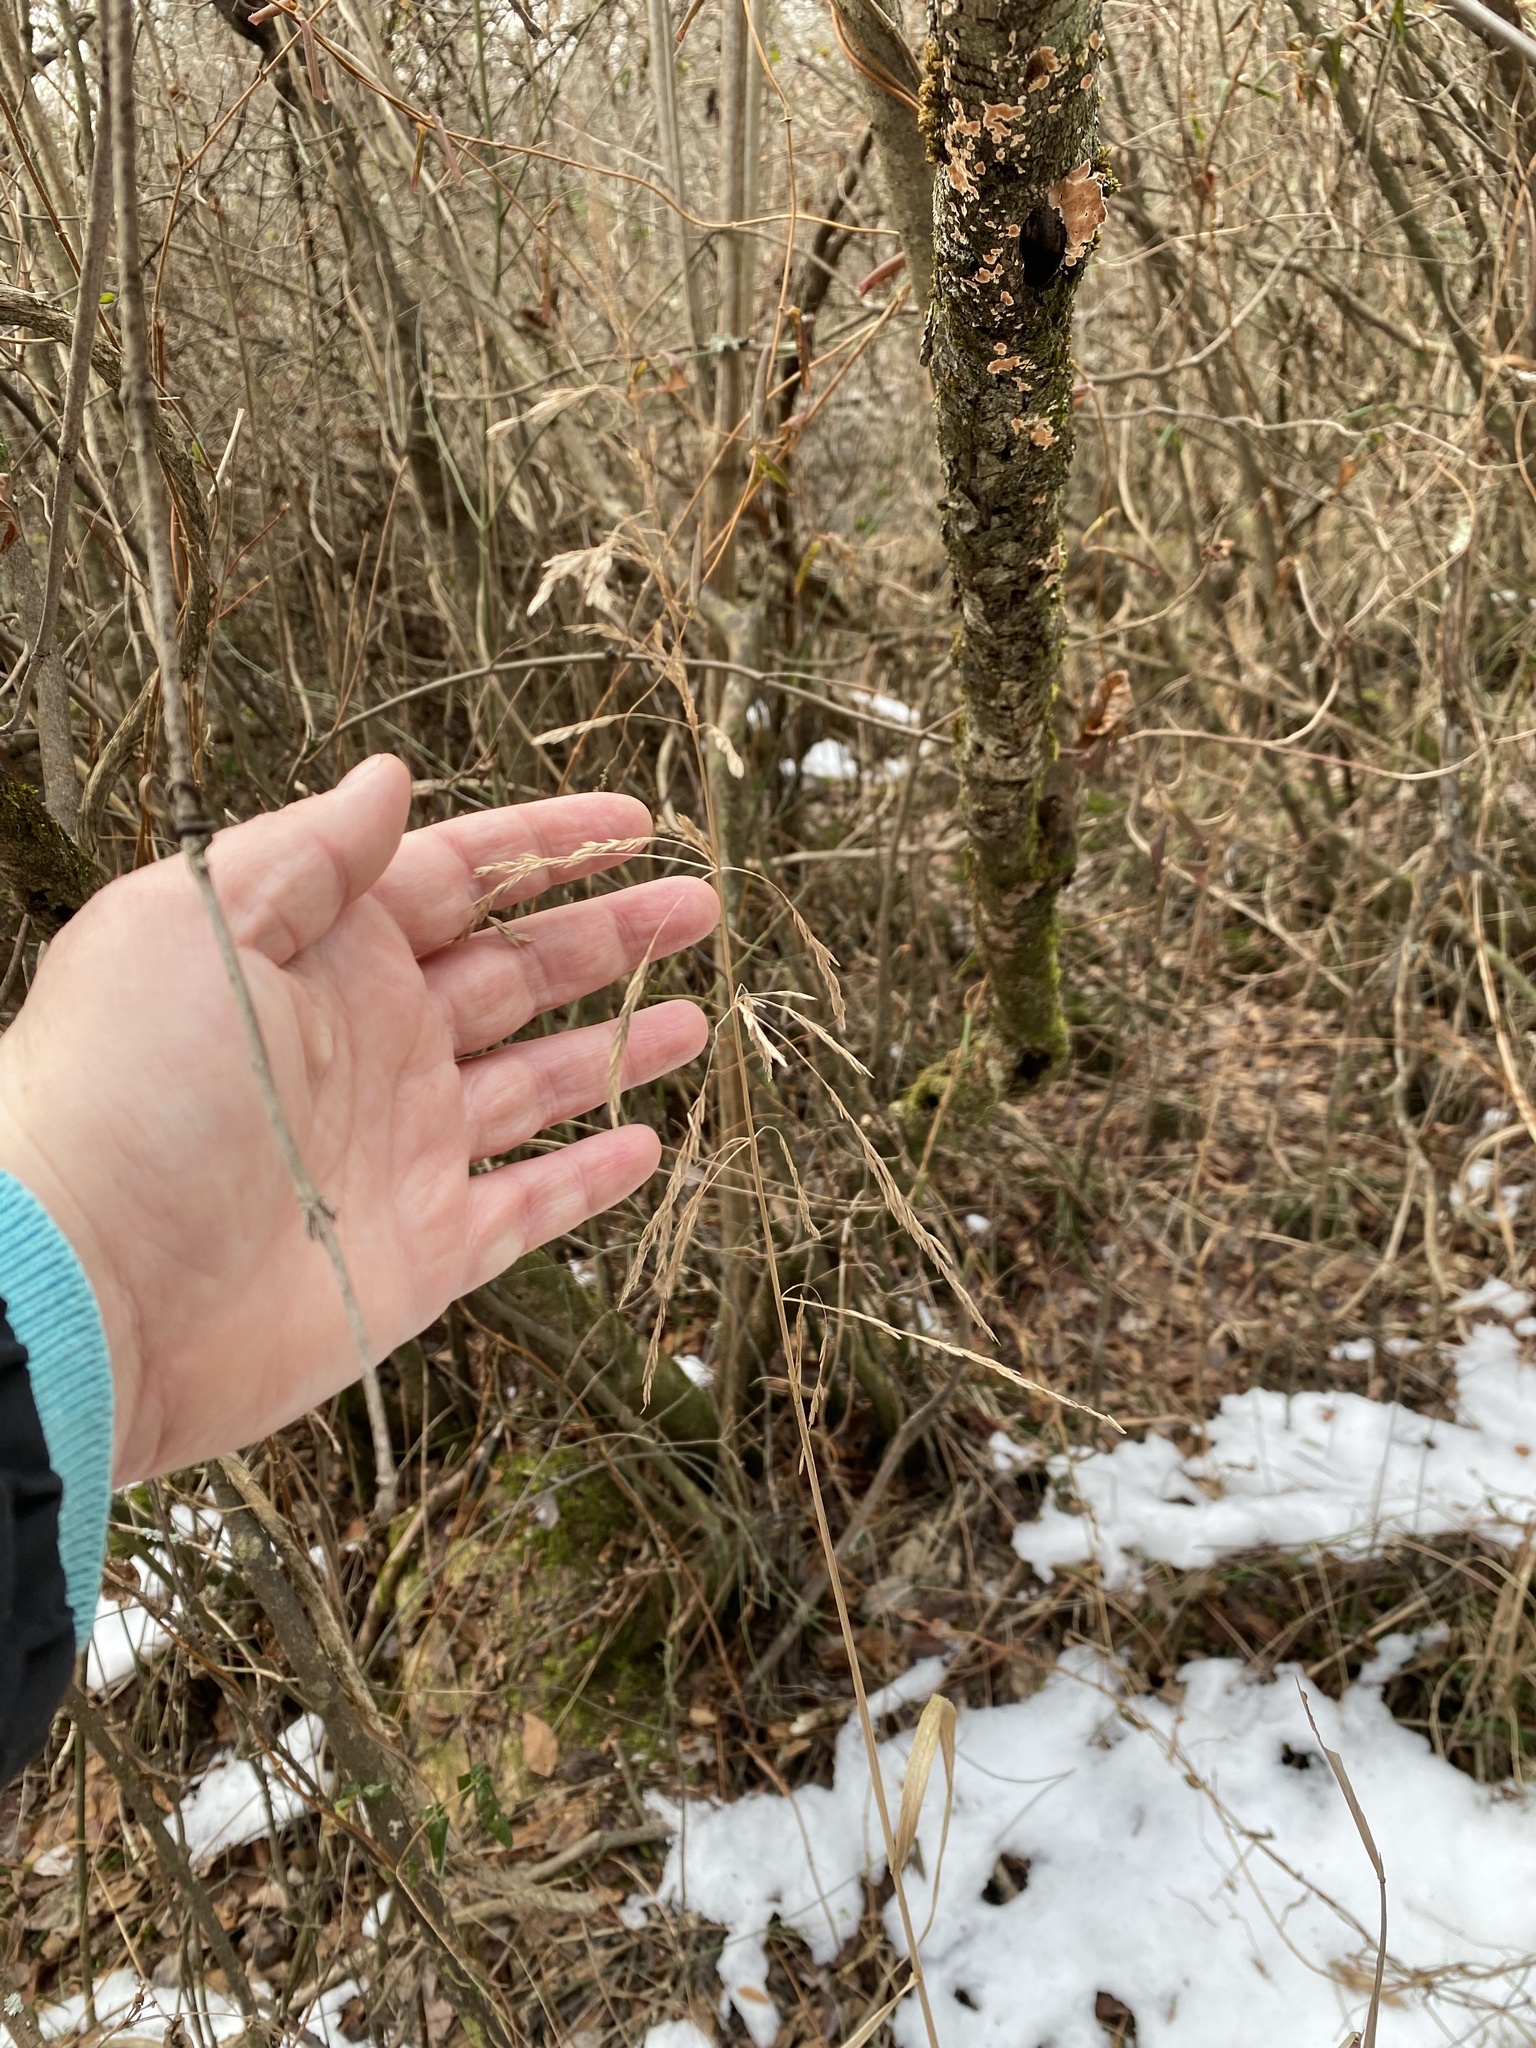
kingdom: Plantae
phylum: Tracheophyta
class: Liliopsida
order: Poales
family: Poaceae
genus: Cinna
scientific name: Cinna arundinacea
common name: Stout woodreed
